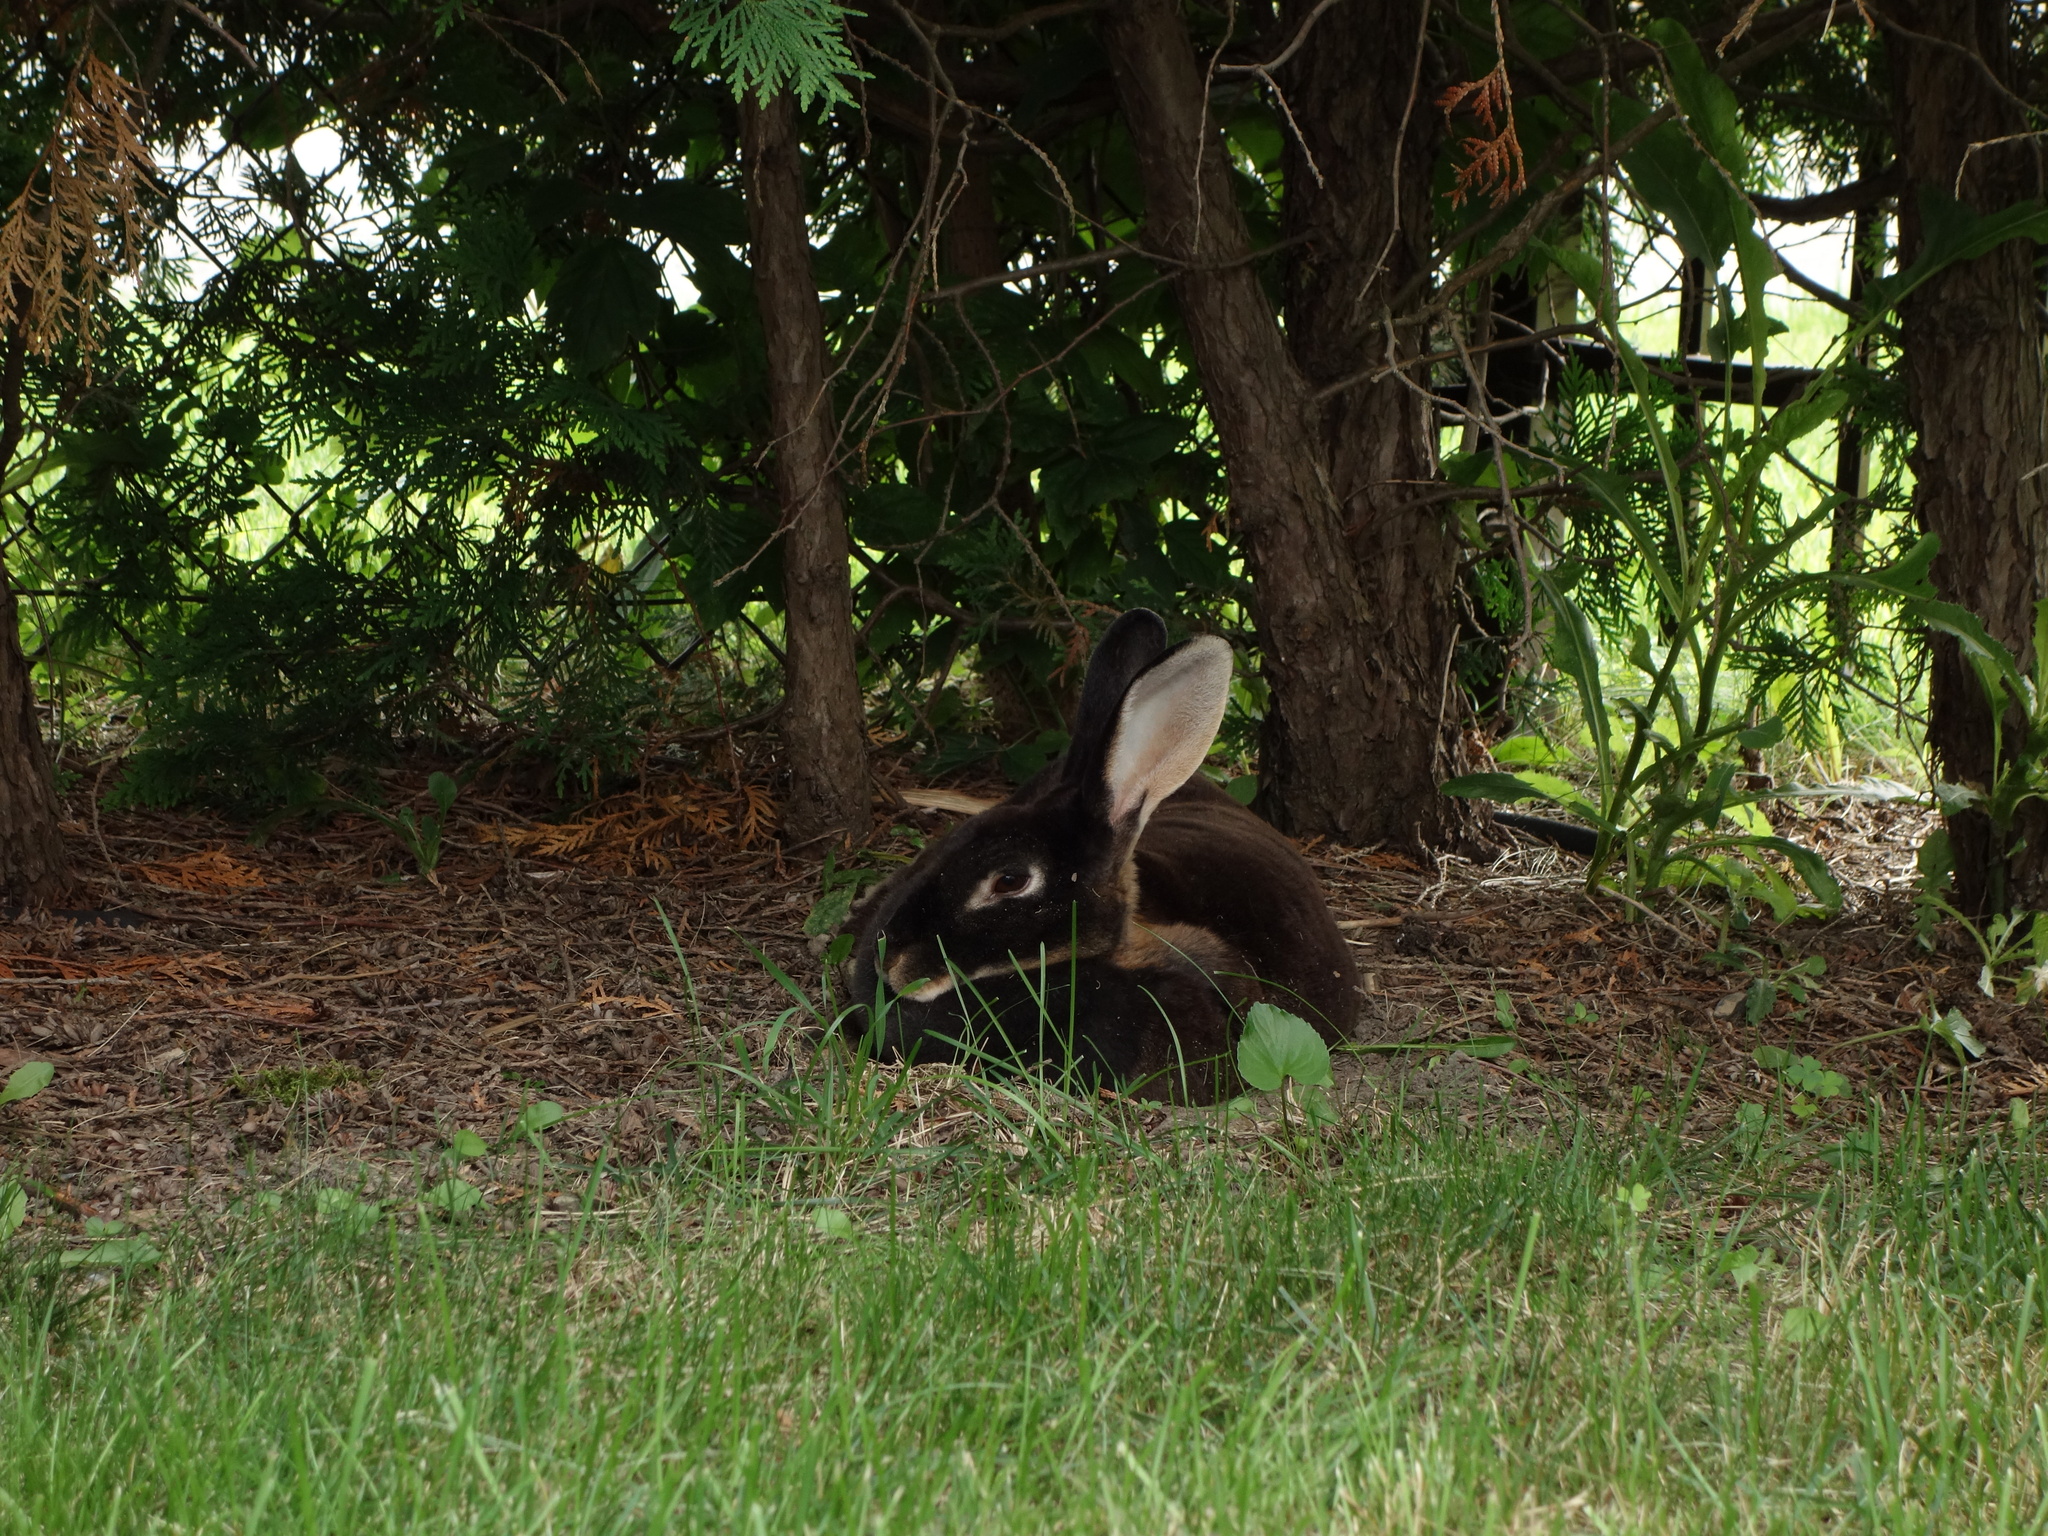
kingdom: Animalia
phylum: Chordata
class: Mammalia
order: Lagomorpha
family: Leporidae
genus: Oryctolagus
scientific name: Oryctolagus cuniculus
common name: European rabbit
